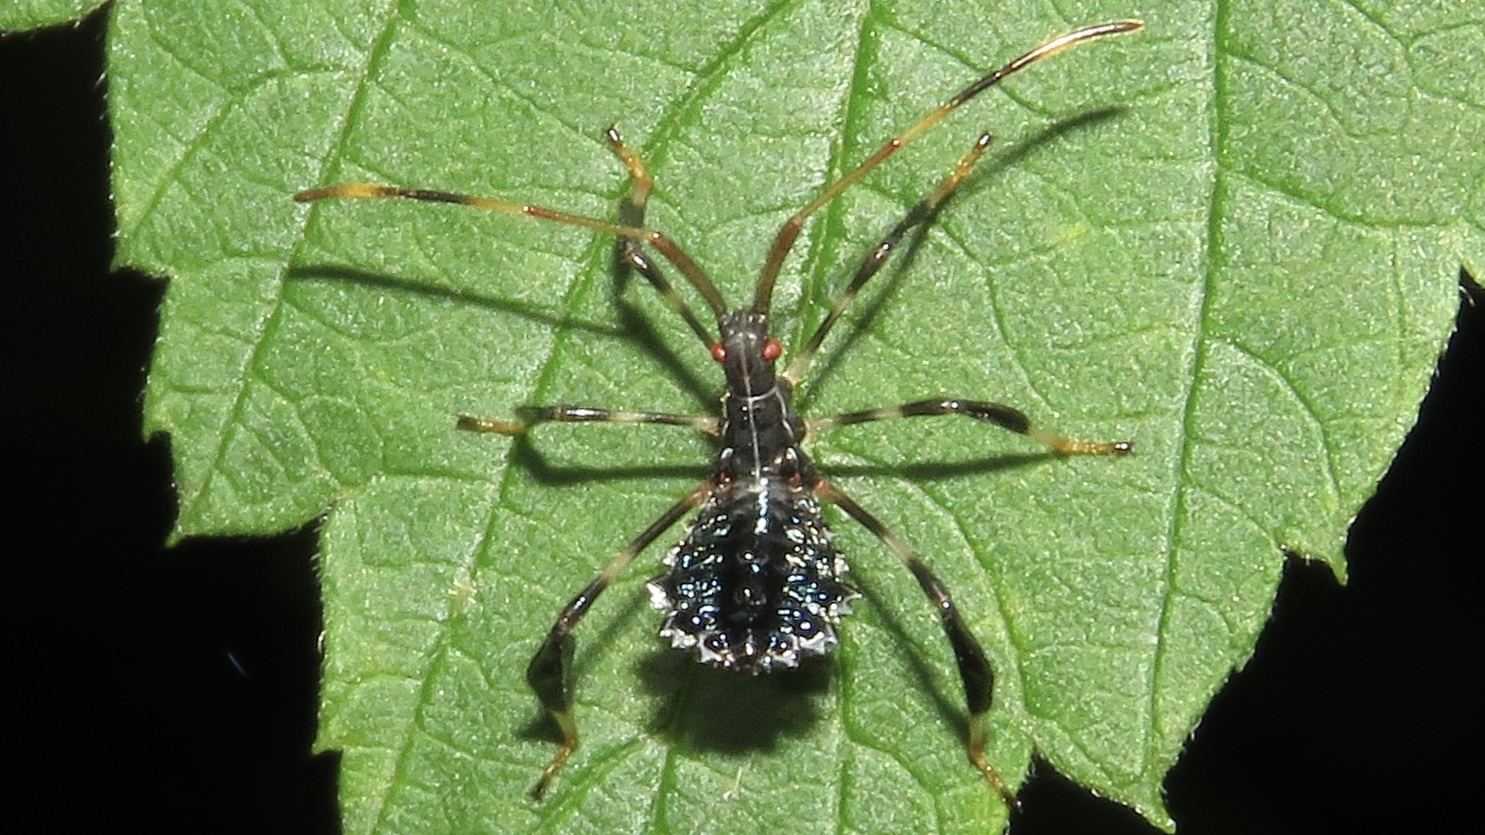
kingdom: Animalia
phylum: Arthropoda
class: Insecta
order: Hemiptera
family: Coreidae
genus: Acanthocephala
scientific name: Acanthocephala terminalis
